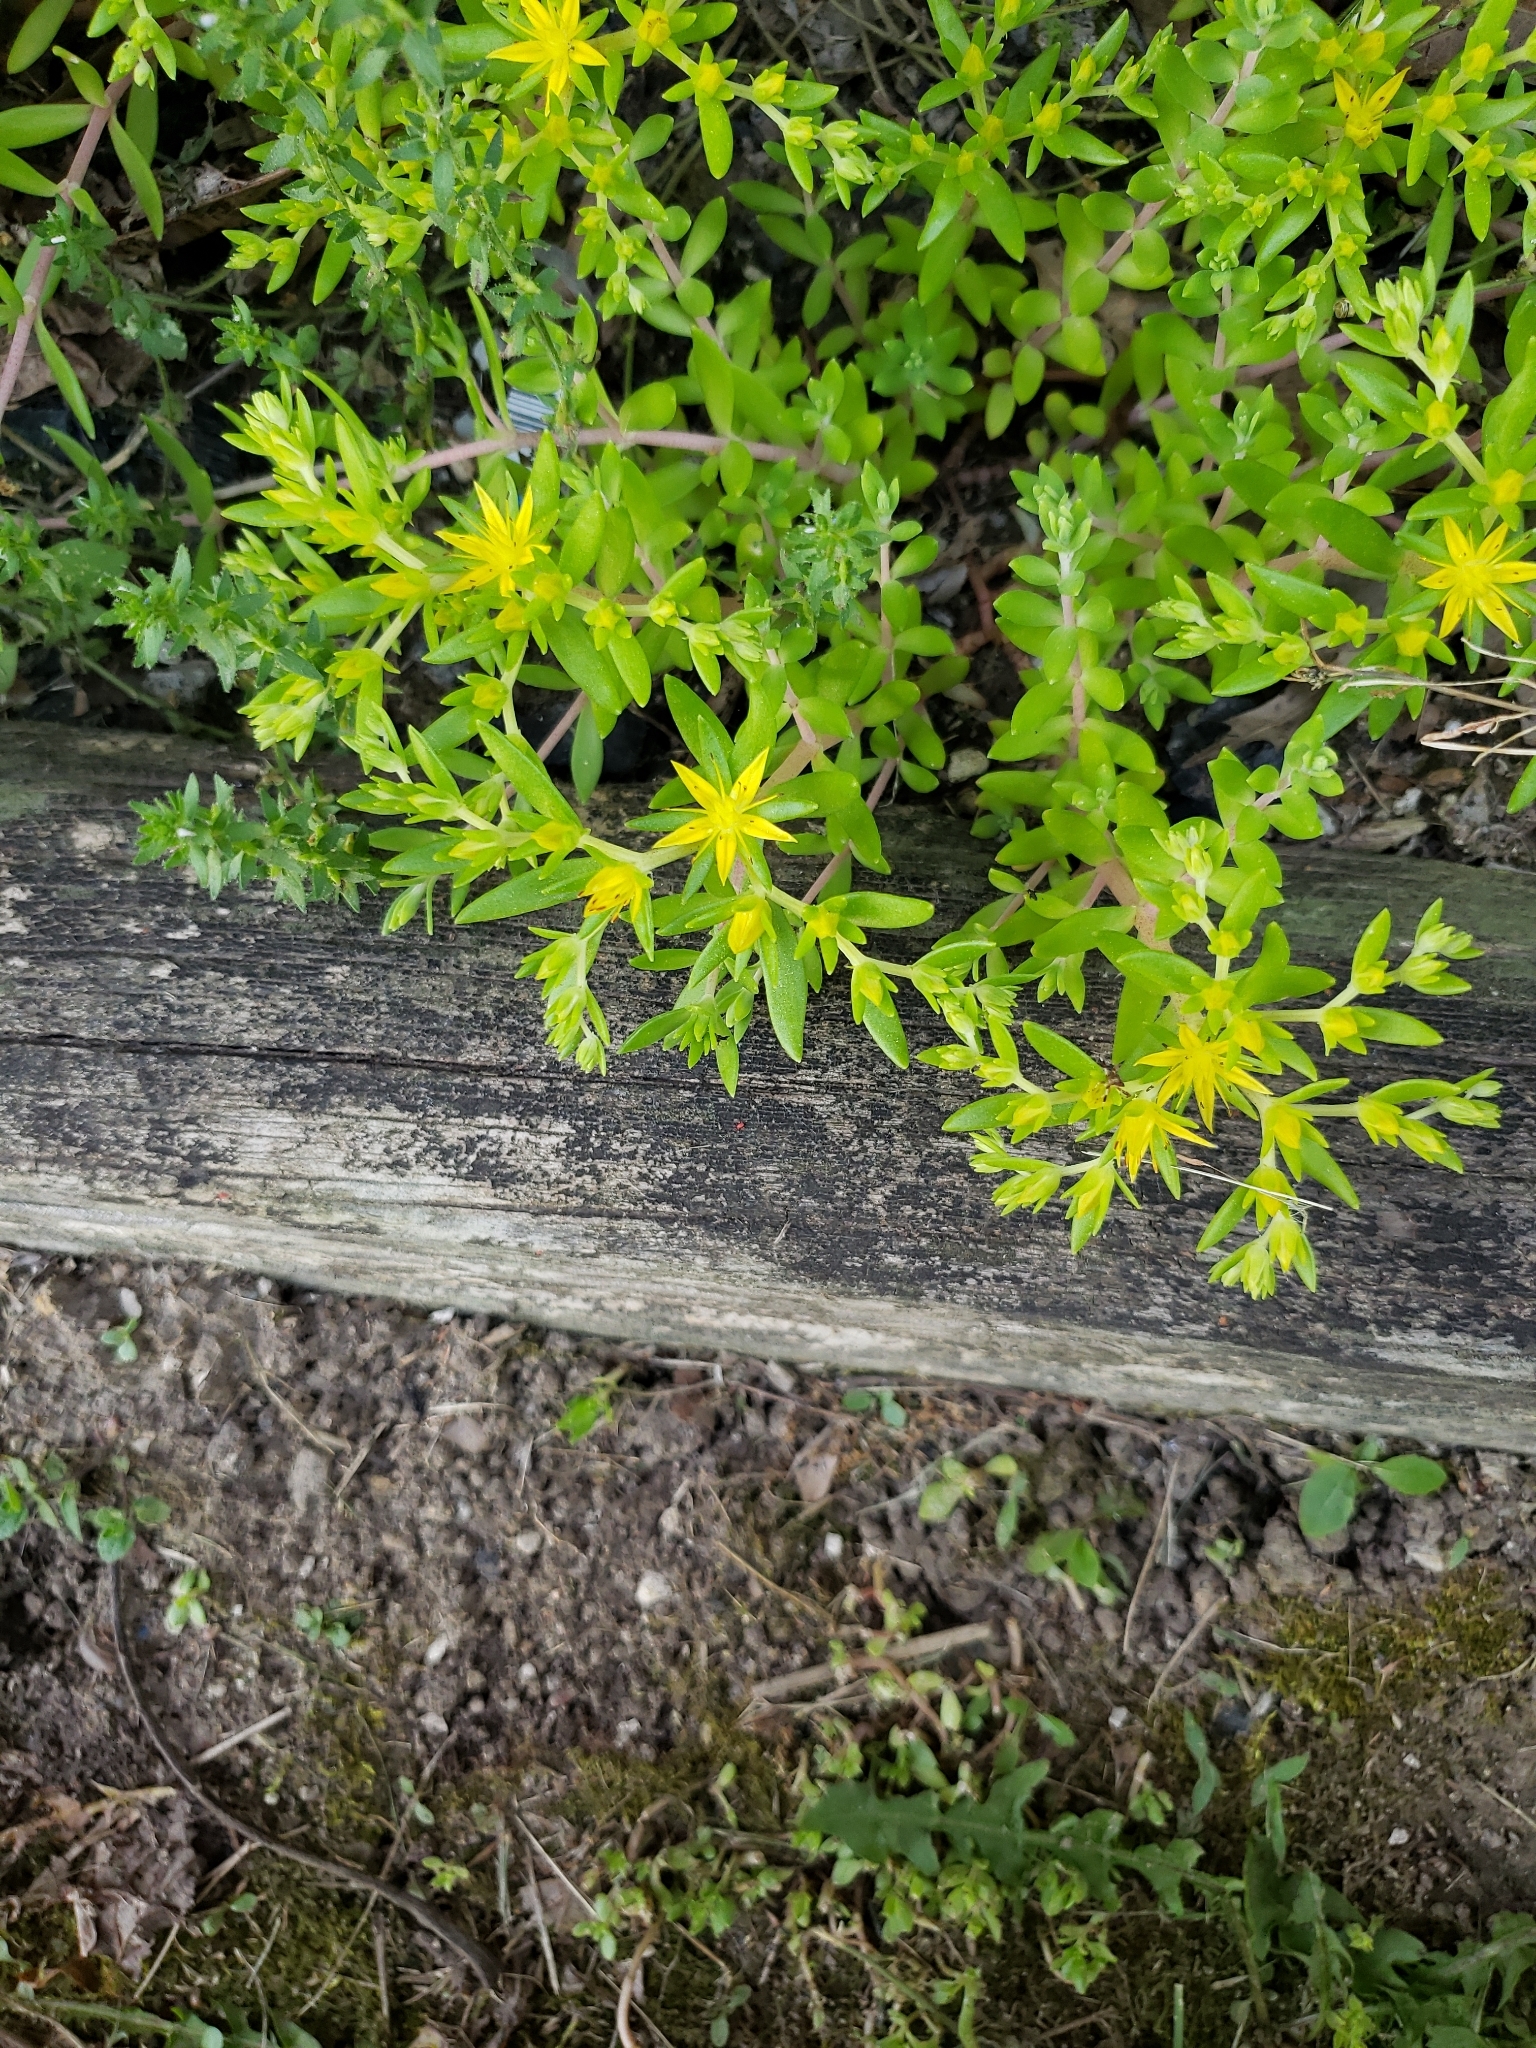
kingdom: Plantae
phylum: Tracheophyta
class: Magnoliopsida
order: Saxifragales
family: Crassulaceae
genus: Sedum
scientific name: Sedum sarmentosum
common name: Stringy stonecrop
